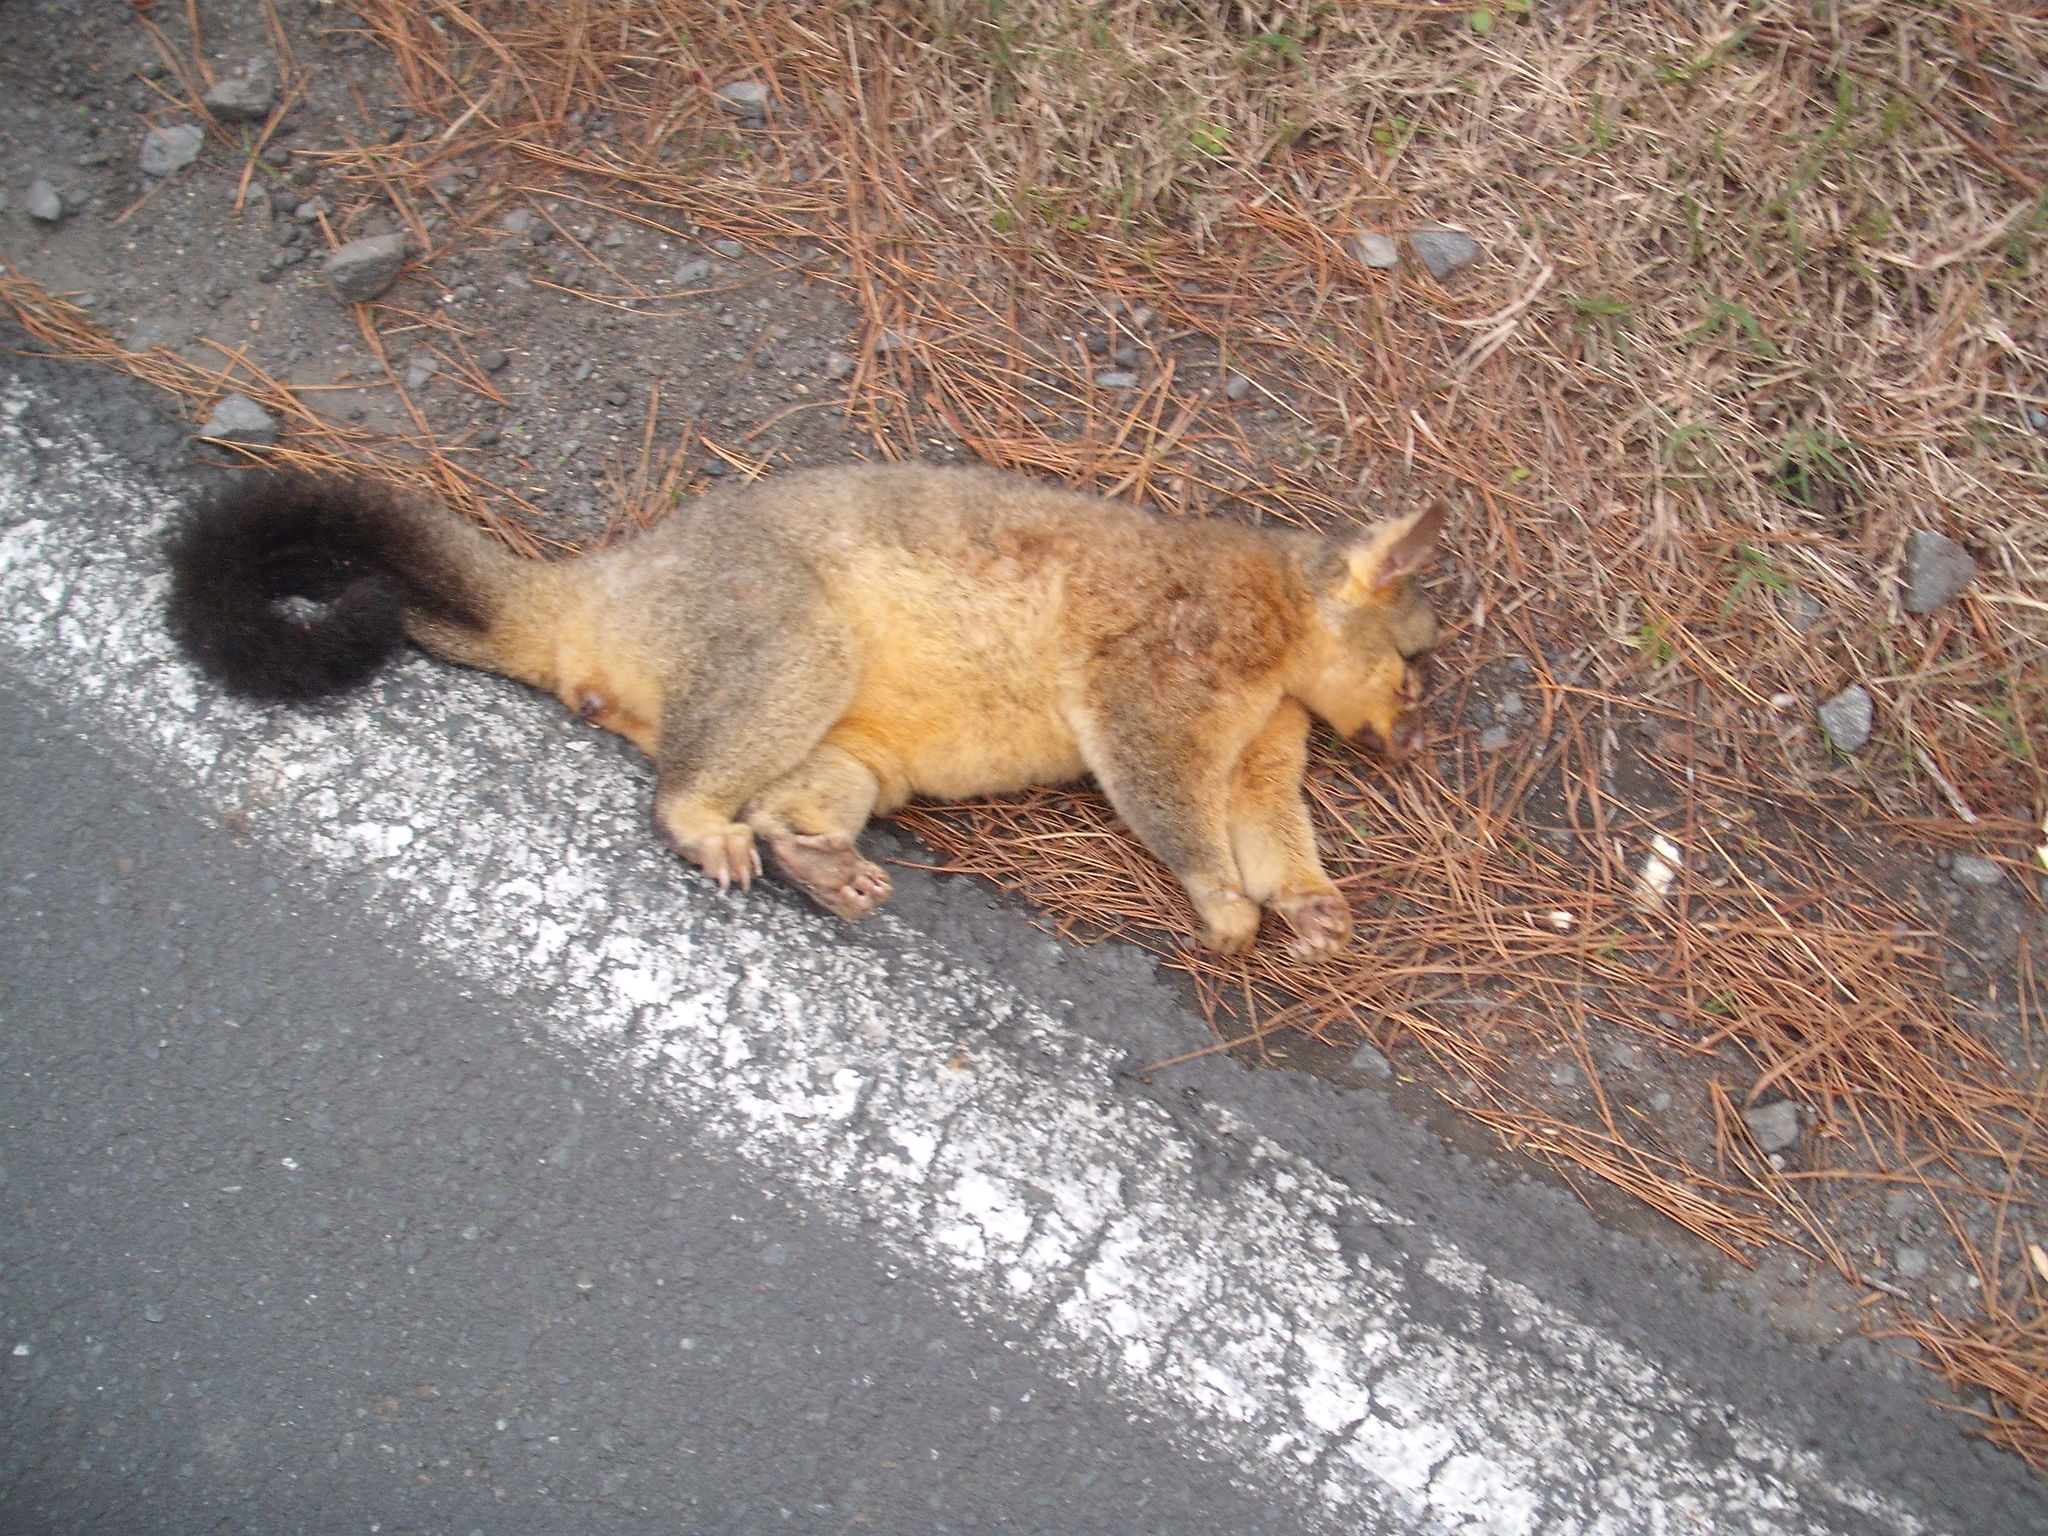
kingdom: Animalia
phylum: Chordata
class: Mammalia
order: Diprotodontia
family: Phalangeridae
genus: Trichosurus
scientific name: Trichosurus vulpecula
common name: Common brushtail
